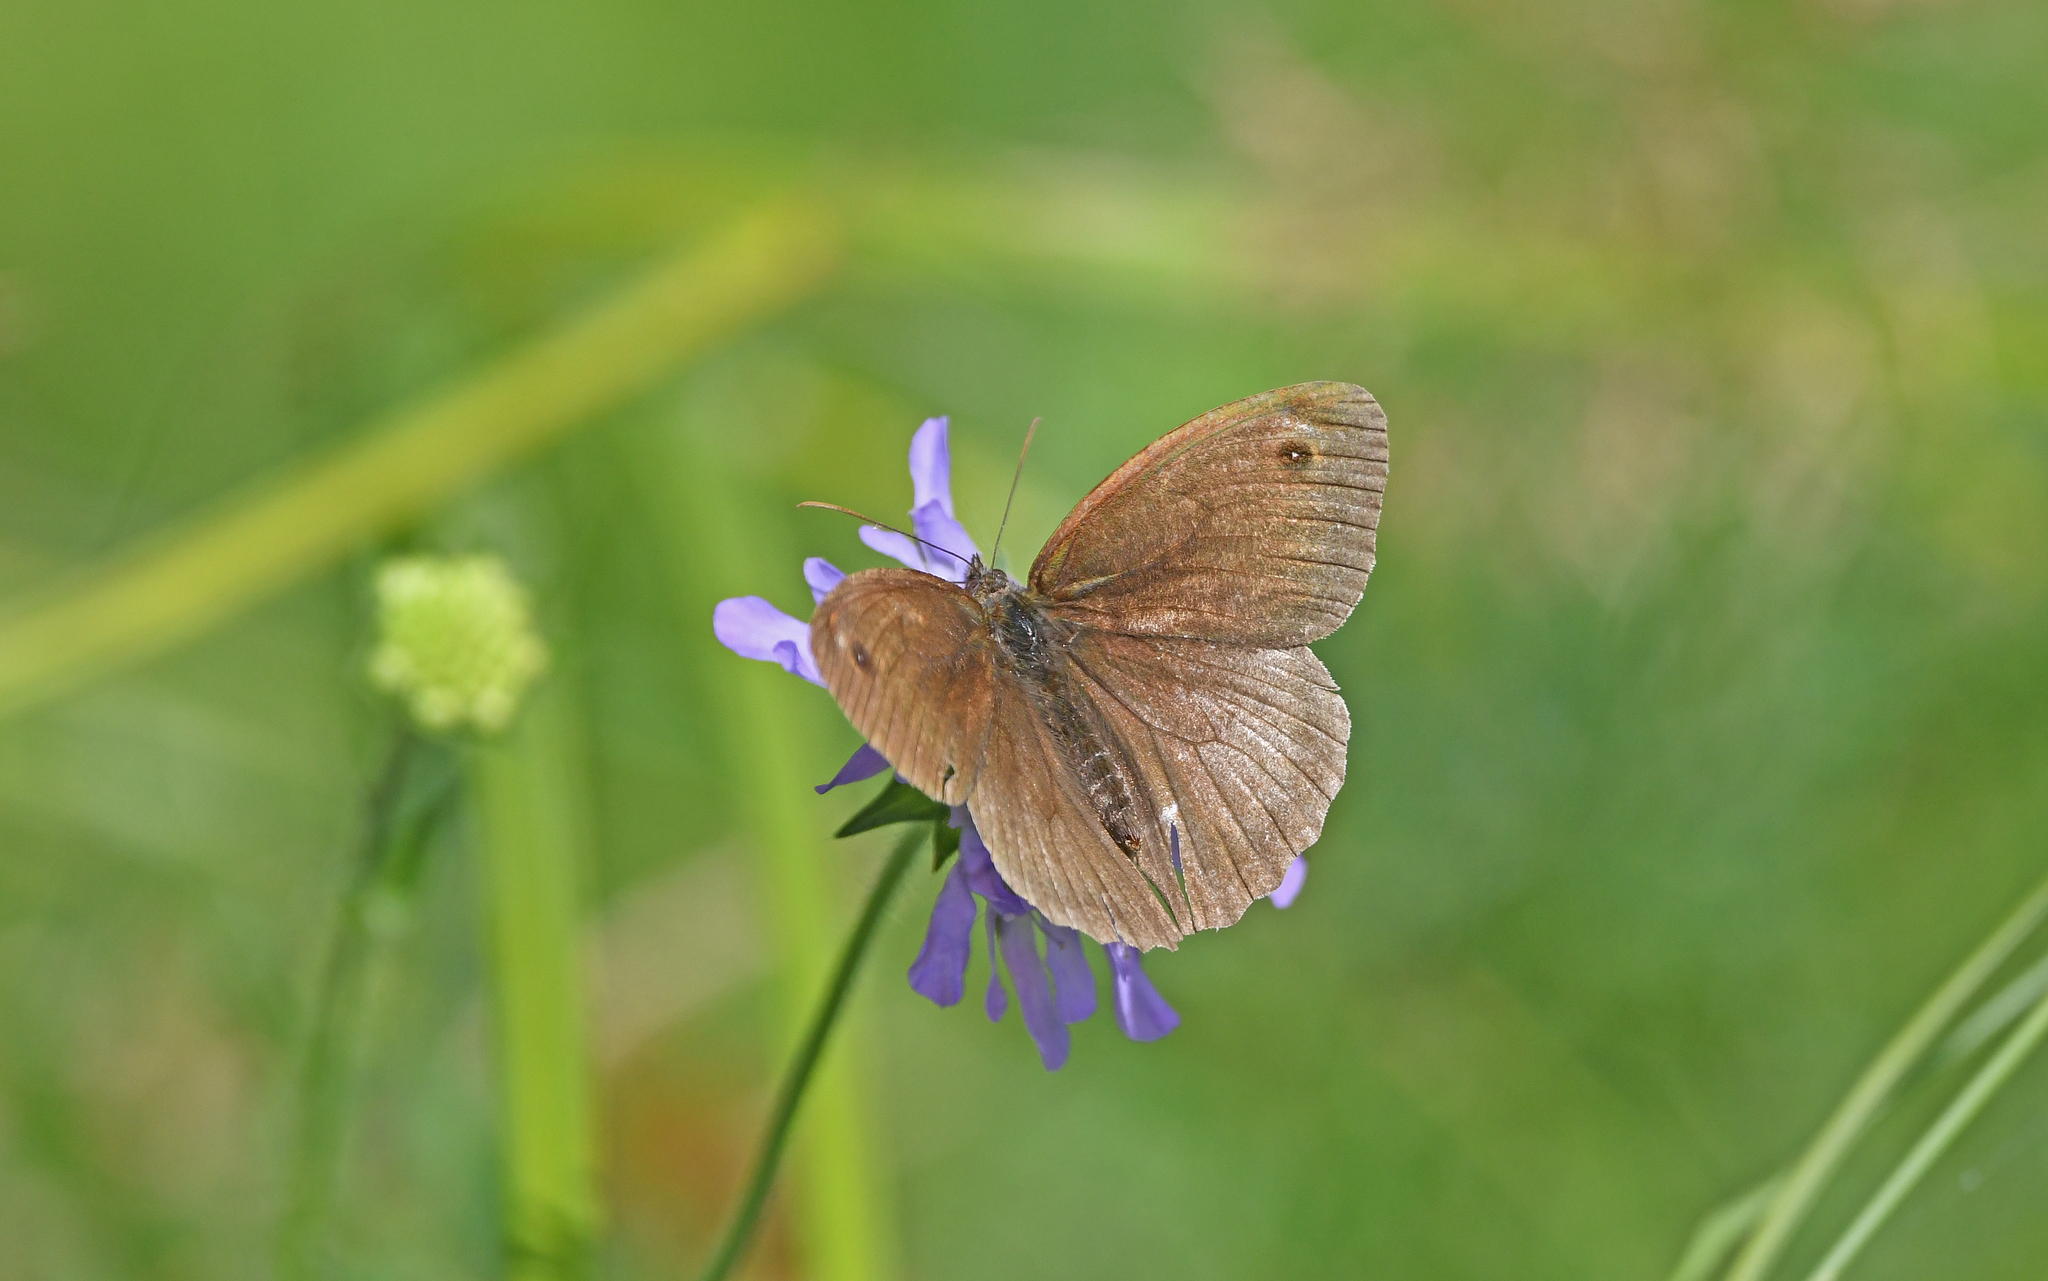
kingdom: Animalia
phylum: Arthropoda
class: Insecta
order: Lepidoptera
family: Nymphalidae
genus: Maniola
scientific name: Maniola jurtina
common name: Meadow brown
